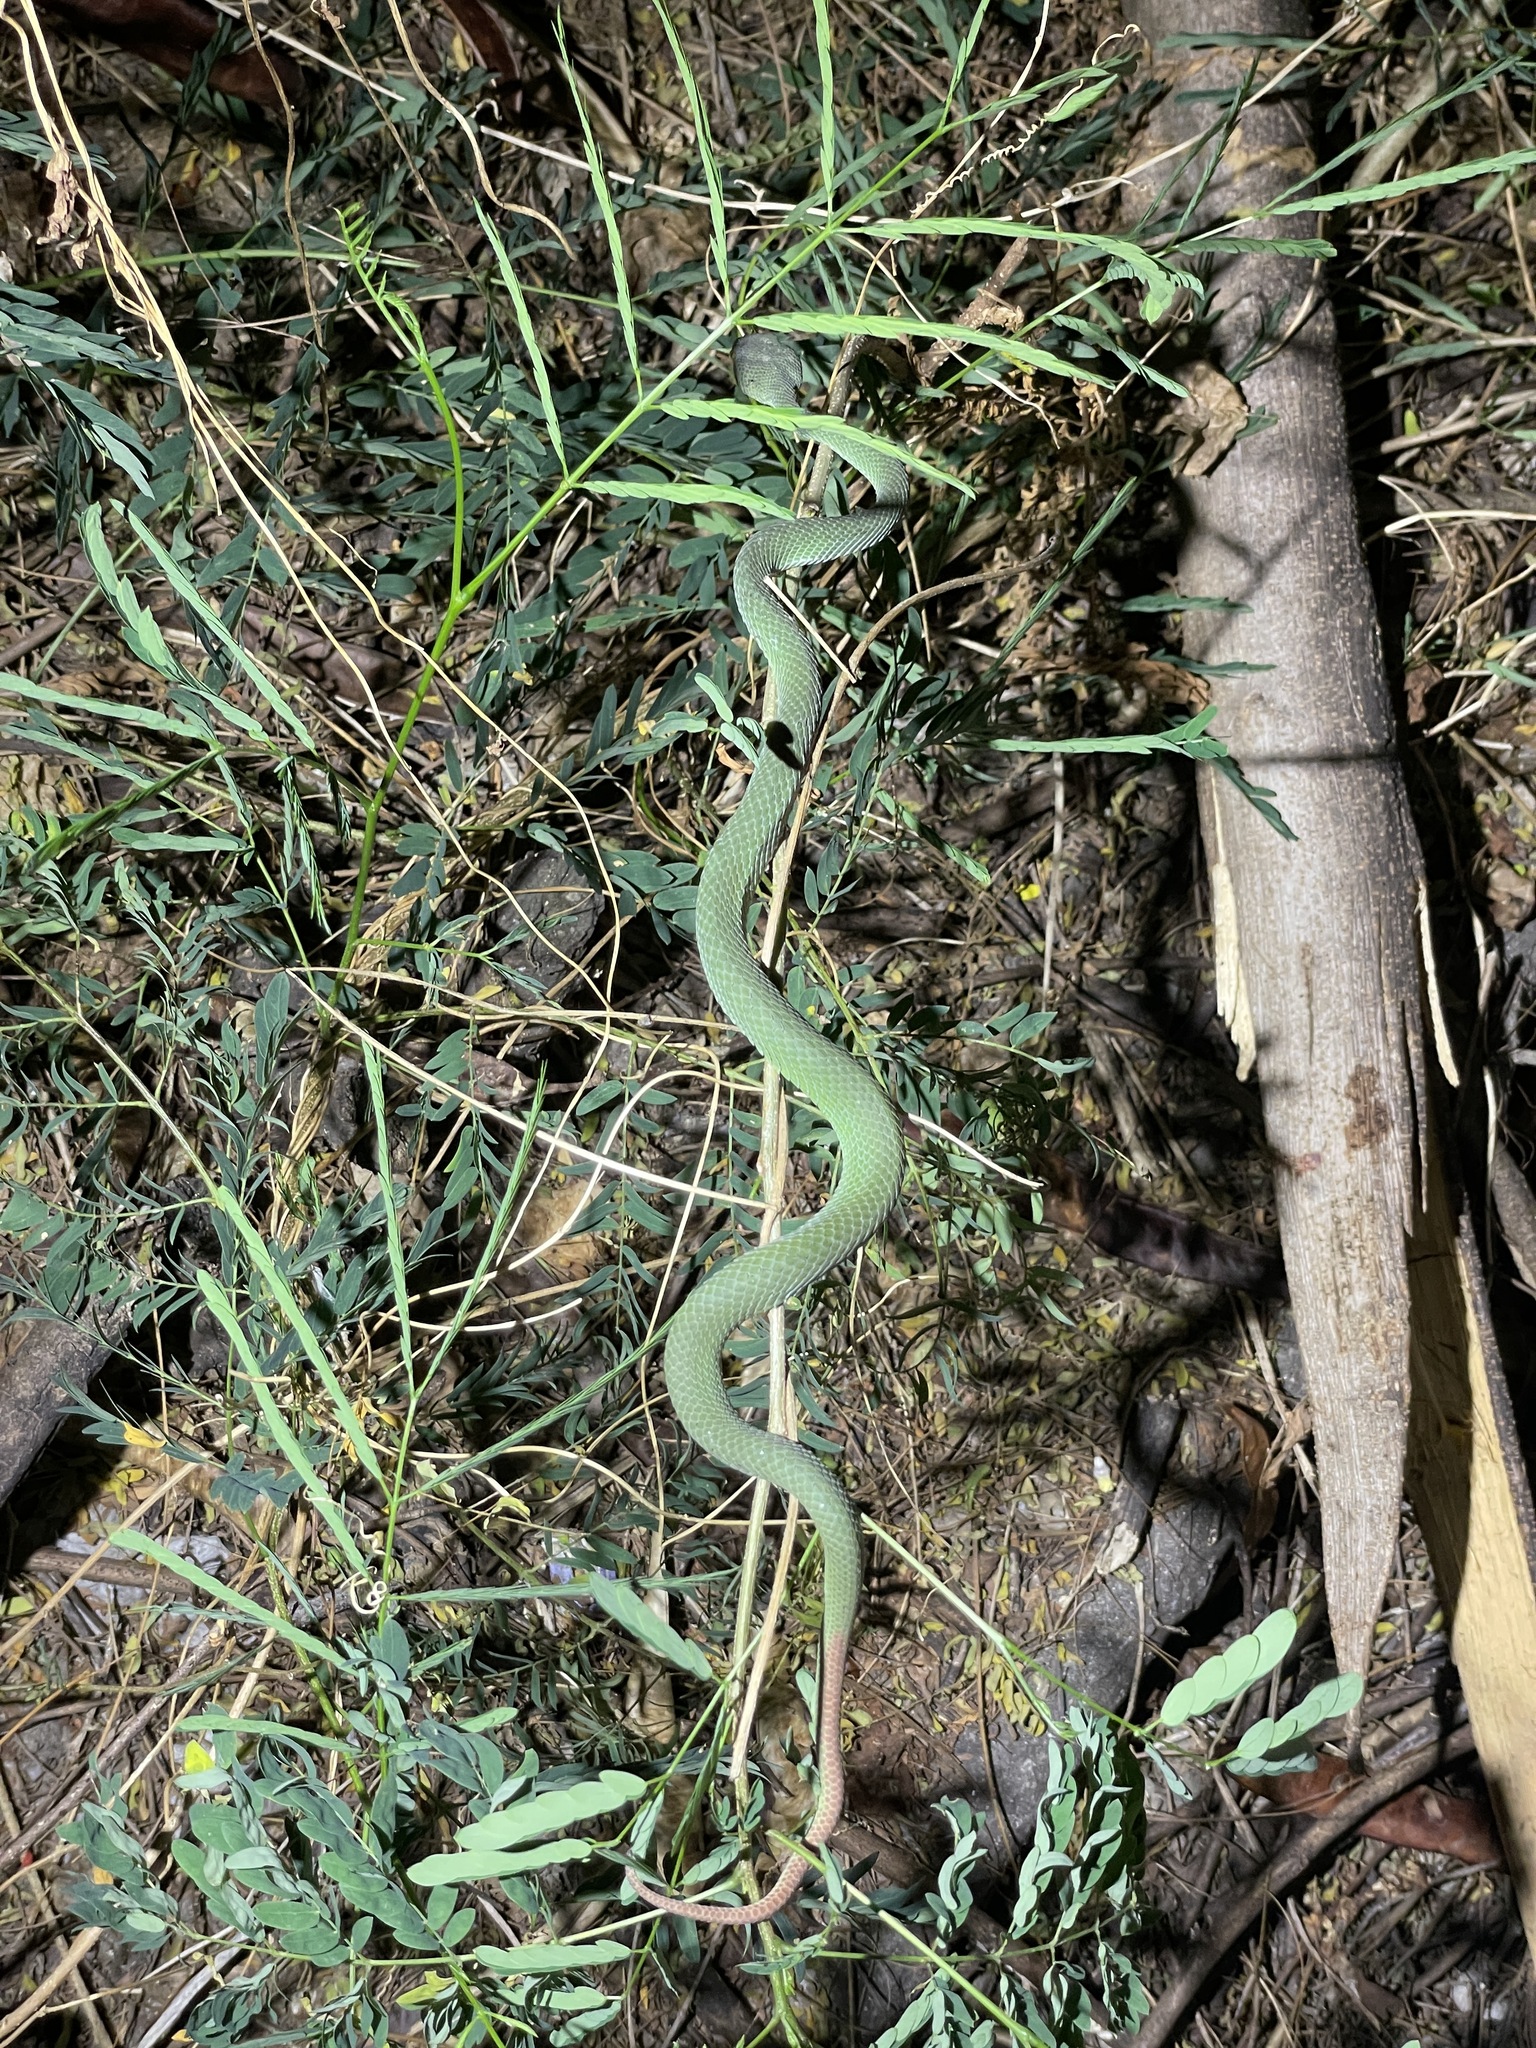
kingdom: Animalia
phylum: Chordata
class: Squamata
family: Viperidae
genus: Trimeresurus
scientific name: Trimeresurus macrops
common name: Kramer's pit viper
